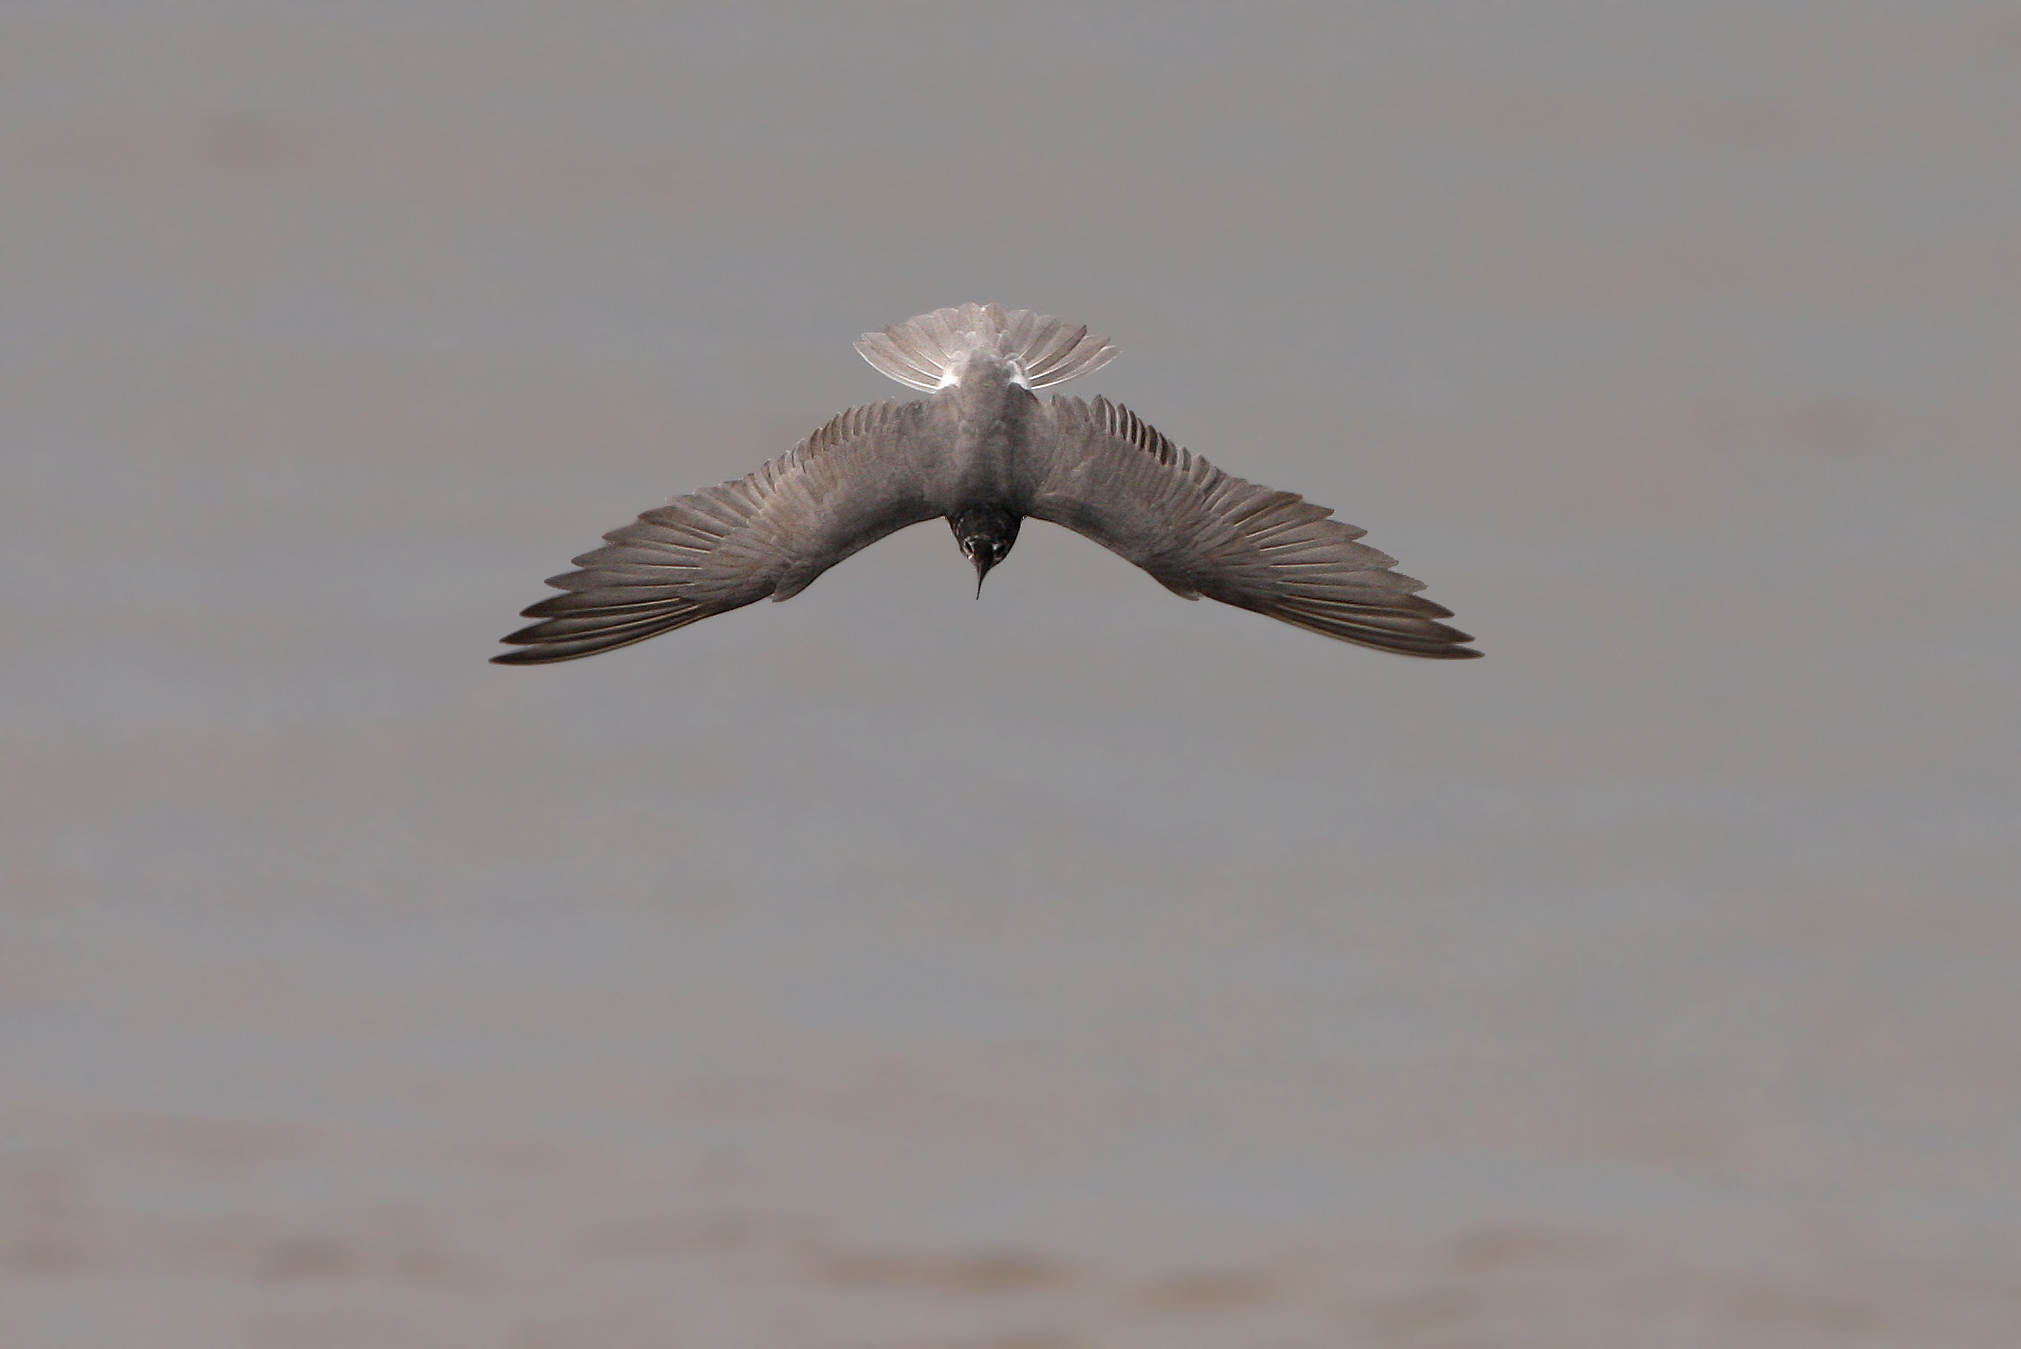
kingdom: Animalia
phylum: Chordata
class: Aves
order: Charadriiformes
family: Laridae
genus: Chlidonias
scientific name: Chlidonias niger
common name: Black tern
